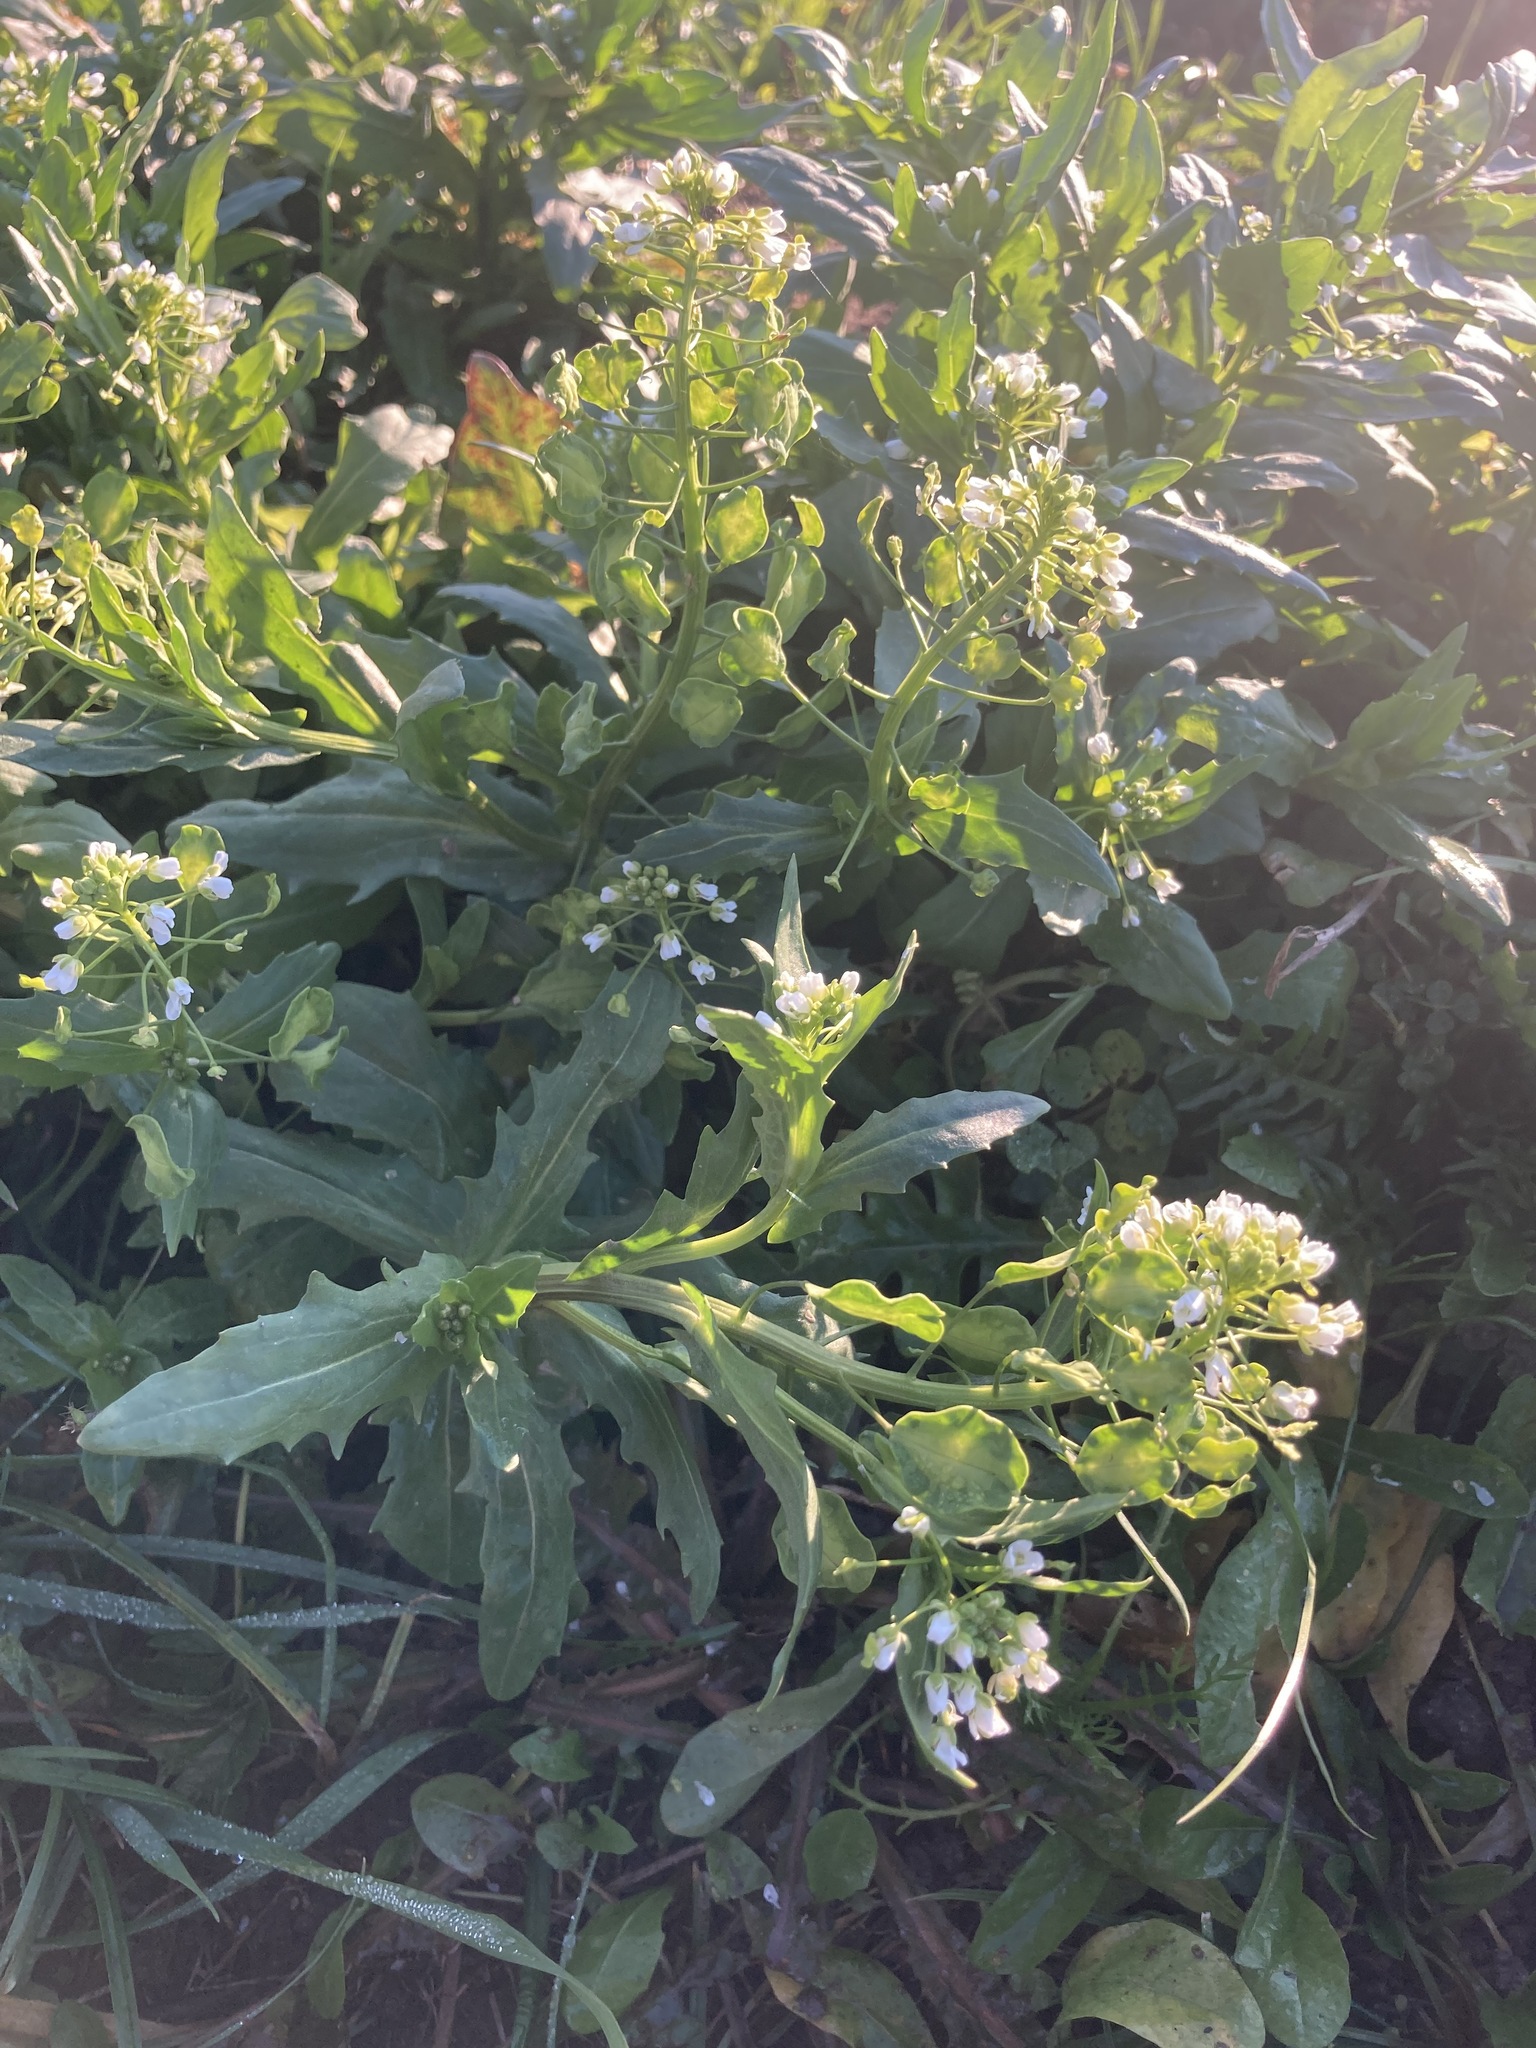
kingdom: Plantae
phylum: Tracheophyta
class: Magnoliopsida
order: Brassicales
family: Brassicaceae
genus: Thlaspi
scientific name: Thlaspi arvense
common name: Field pennycress
